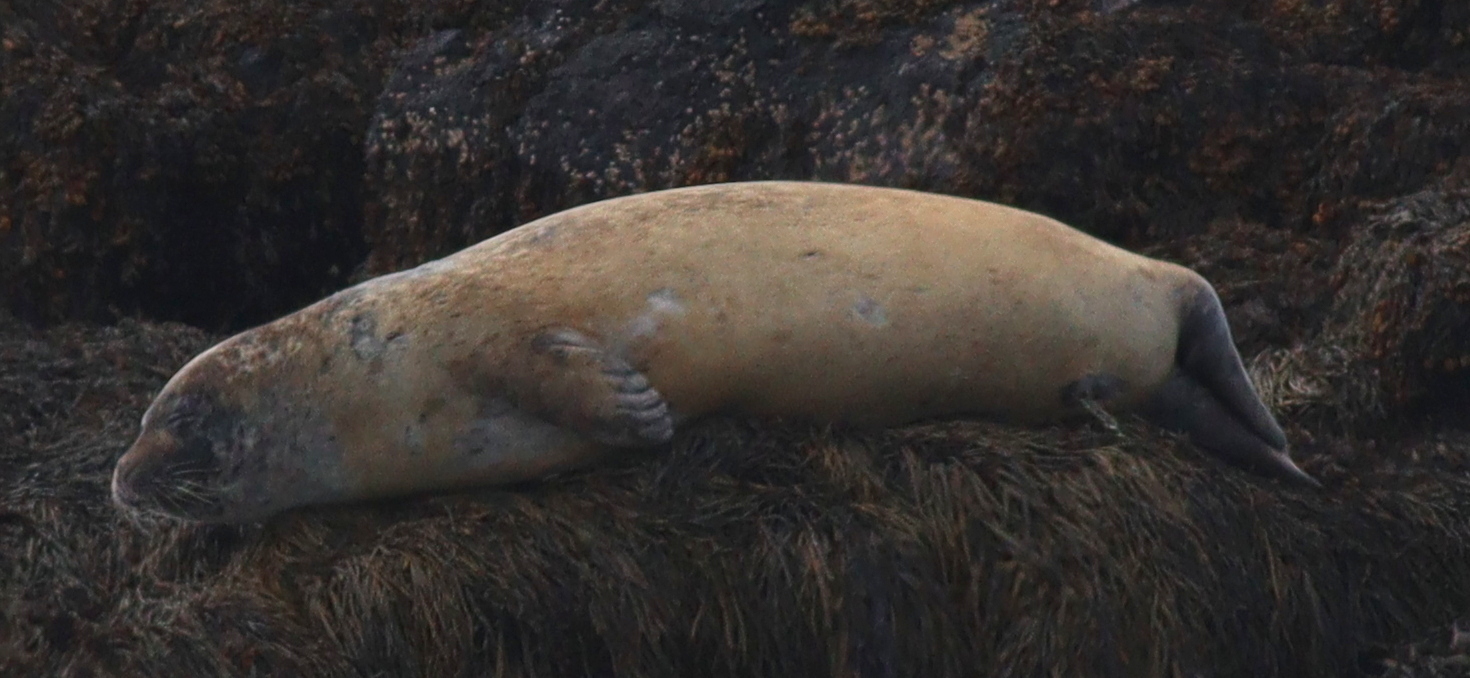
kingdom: Animalia
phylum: Chordata
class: Mammalia
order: Carnivora
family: Phocidae
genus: Phoca
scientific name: Phoca vitulina
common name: Harbor seal
